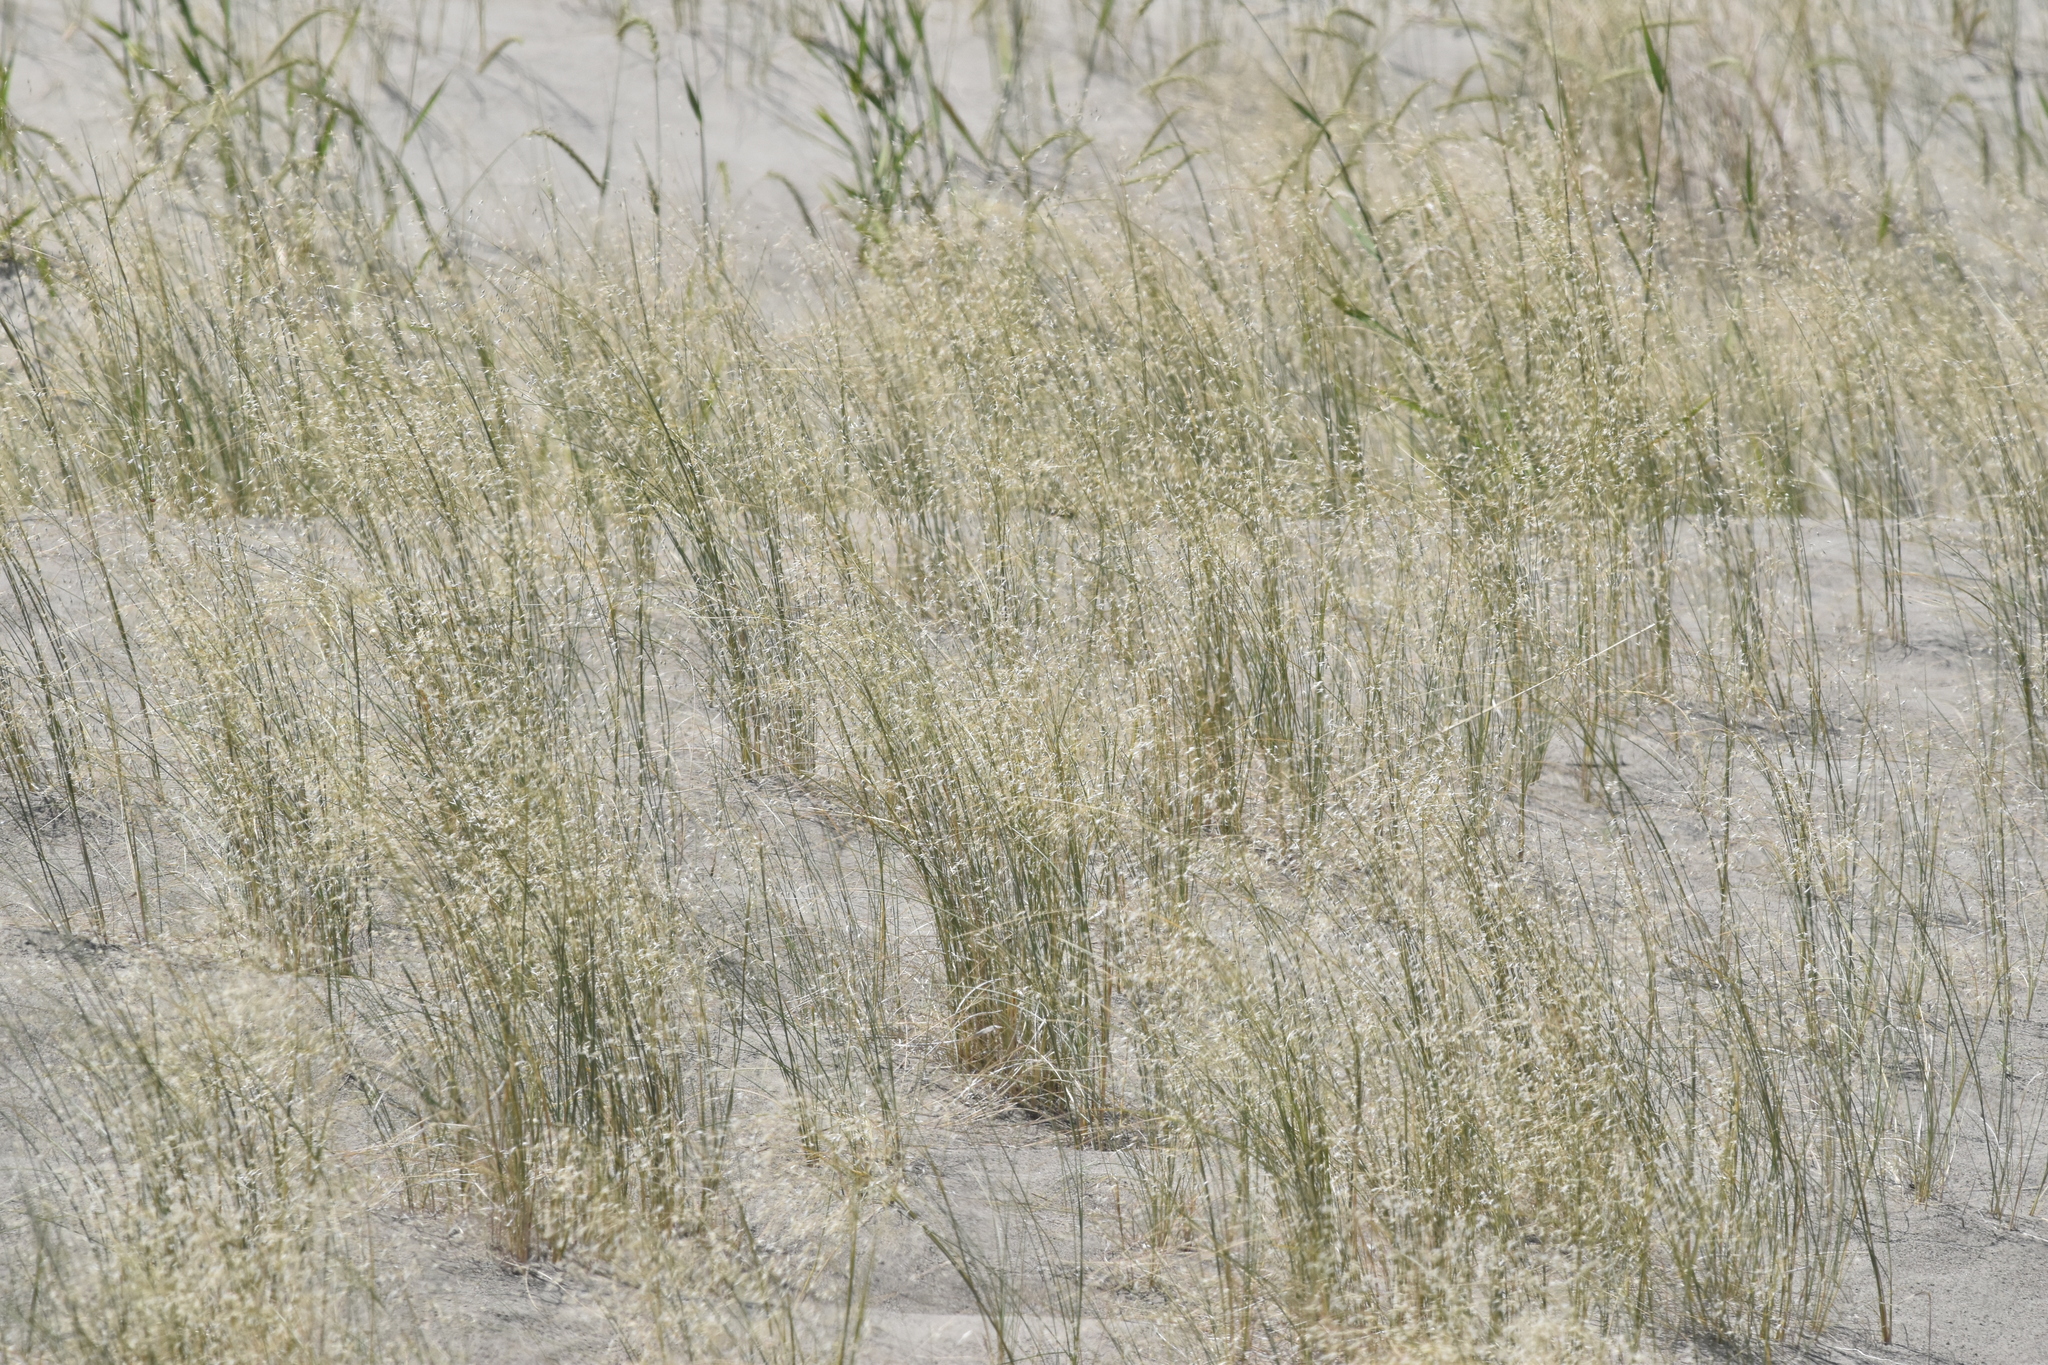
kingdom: Plantae
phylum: Tracheophyta
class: Liliopsida
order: Poales
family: Poaceae
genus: Eriocoma
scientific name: Eriocoma hymenoides
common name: Indian mountain ricegrass
